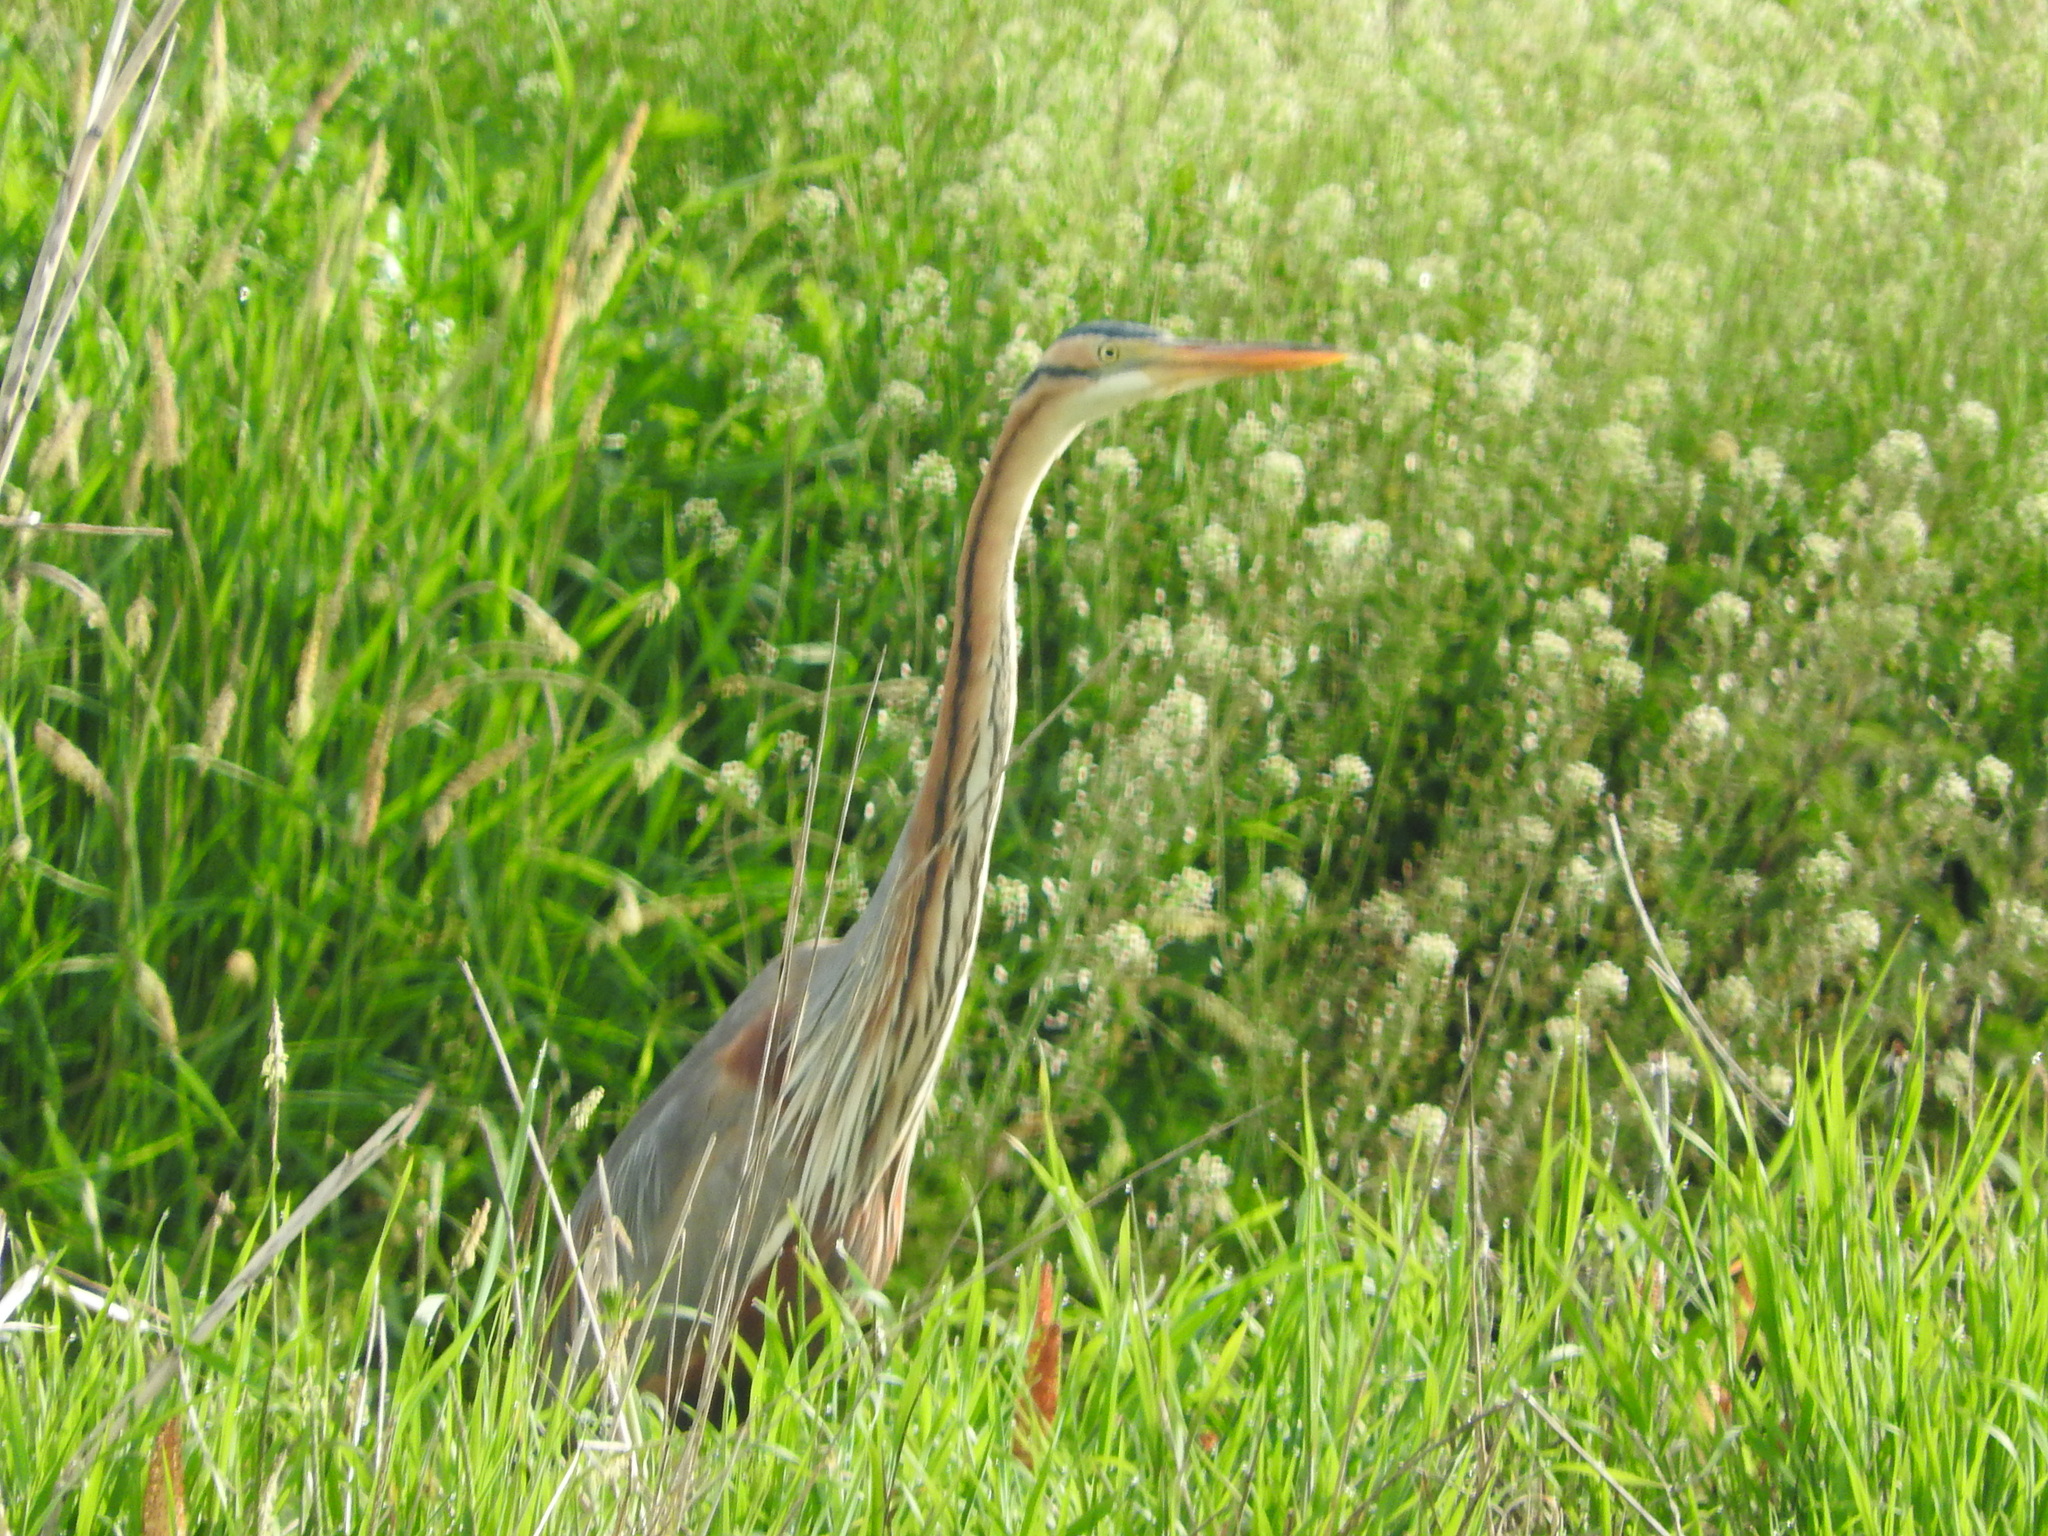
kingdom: Animalia
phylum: Chordata
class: Aves
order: Pelecaniformes
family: Ardeidae
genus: Ardea
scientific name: Ardea purpurea
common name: Purple heron
